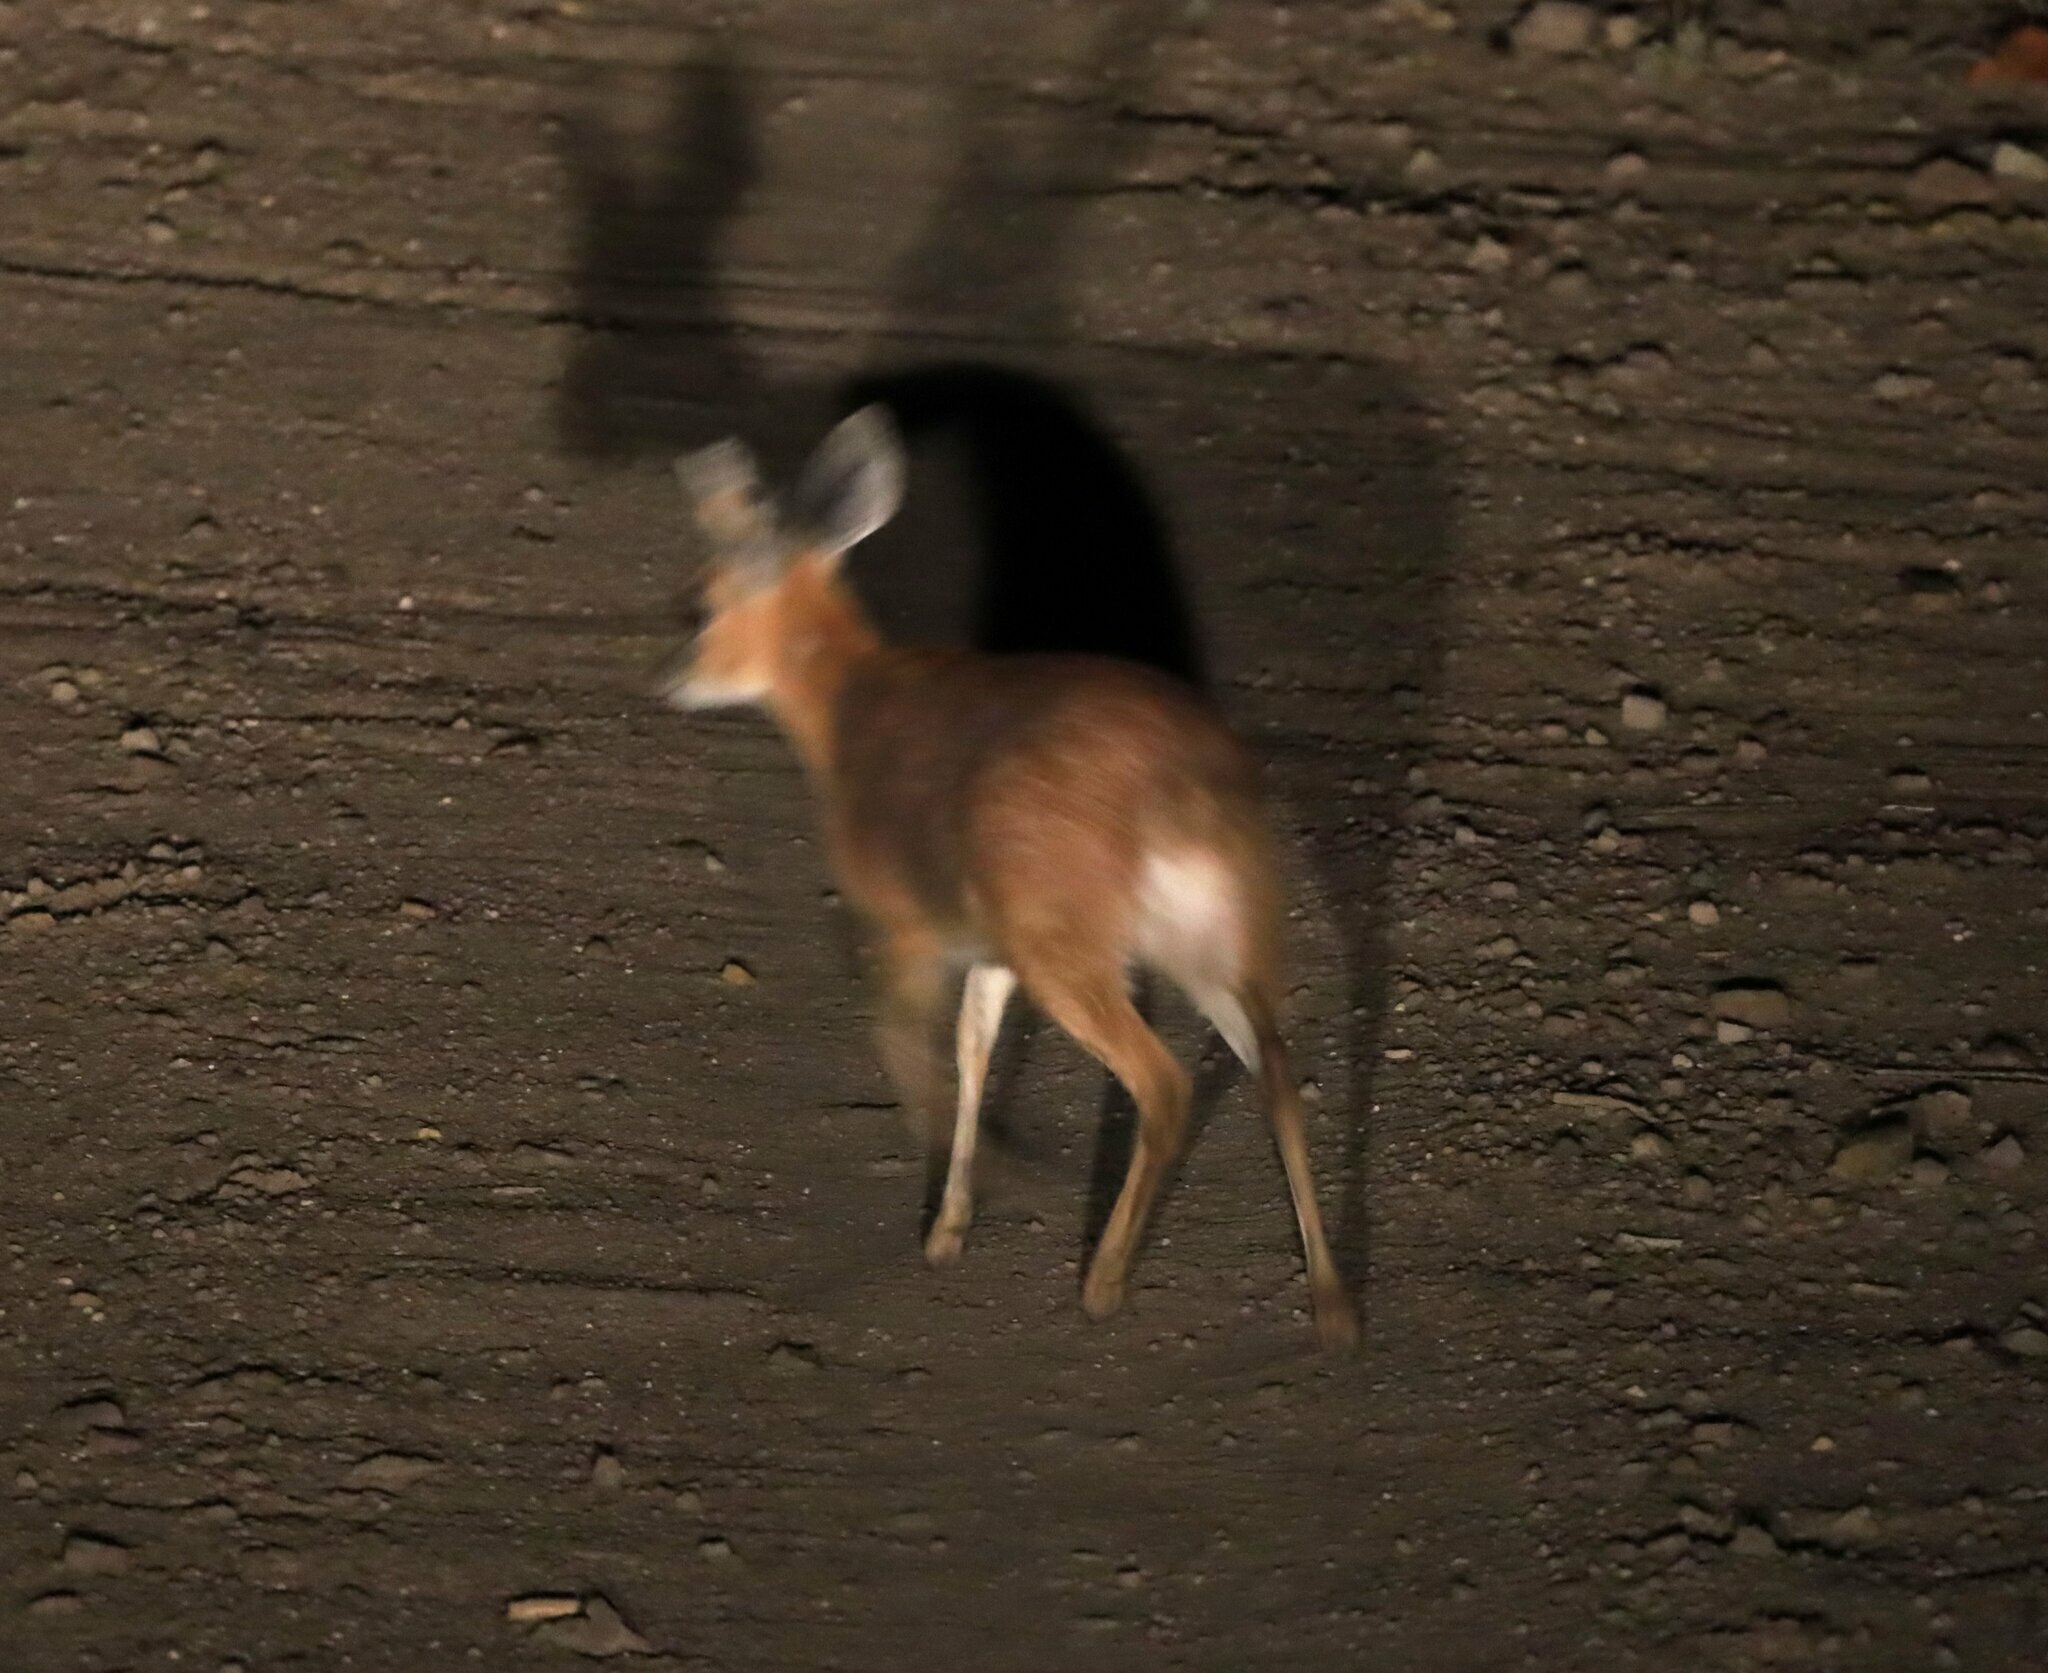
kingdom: Animalia
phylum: Chordata
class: Mammalia
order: Artiodactyla
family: Bovidae
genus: Raphicerus
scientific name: Raphicerus sharpei
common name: Sharpe's grysbok
